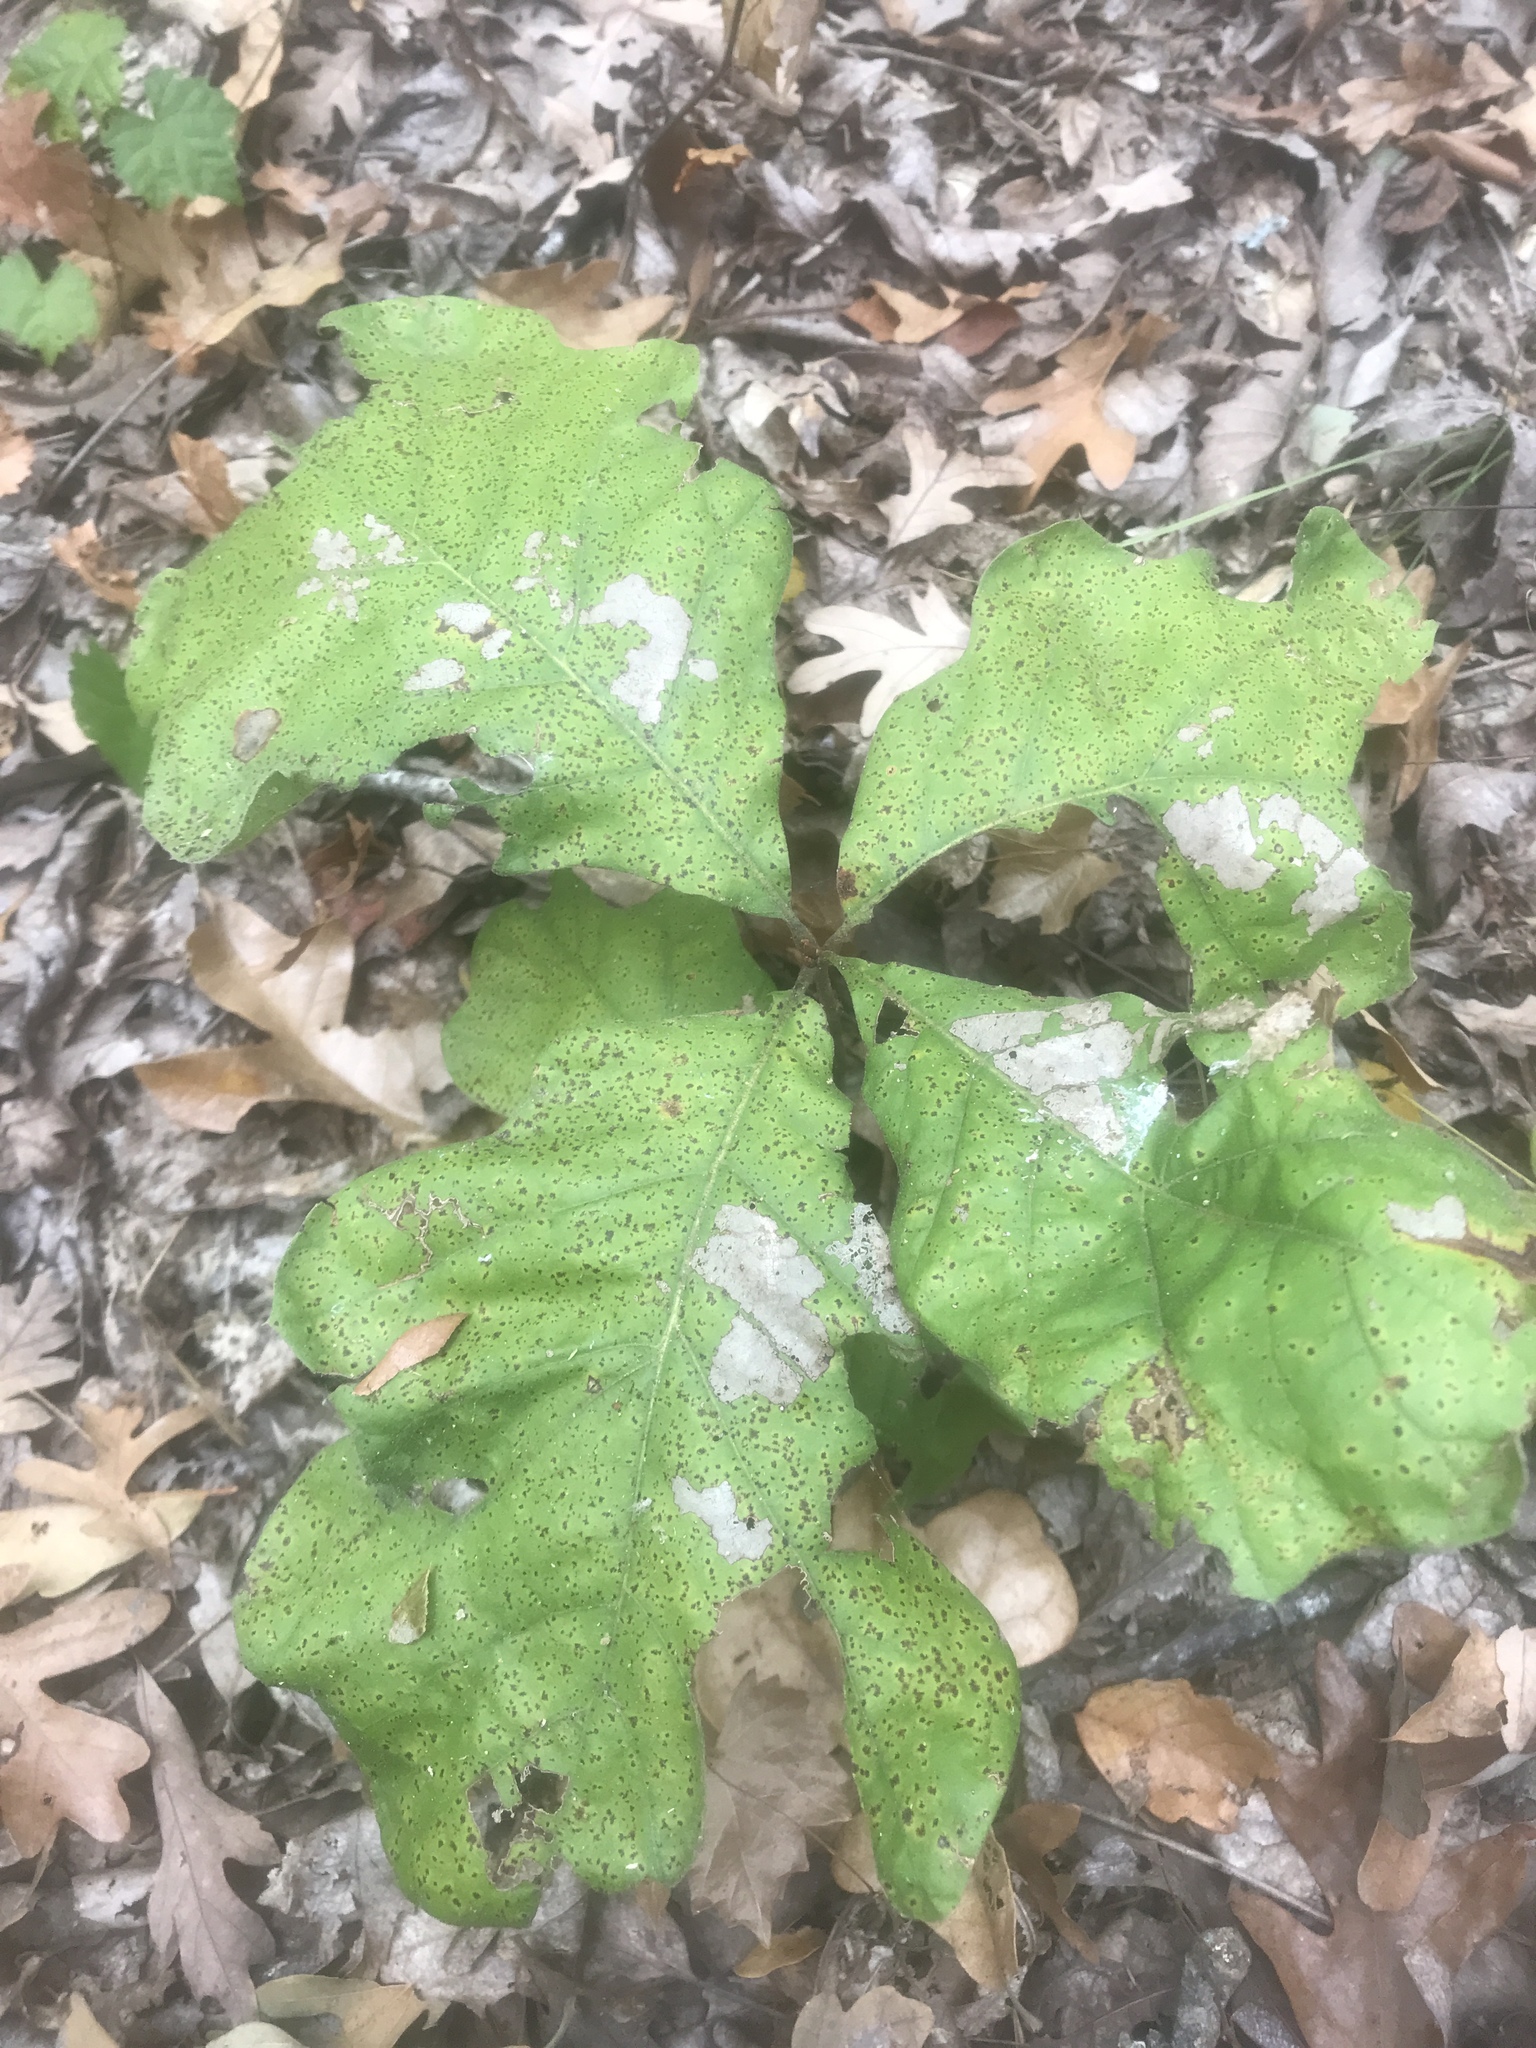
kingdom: Plantae
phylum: Tracheophyta
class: Magnoliopsida
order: Fagales
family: Fagaceae
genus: Quercus
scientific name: Quercus velutina
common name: Black oak
